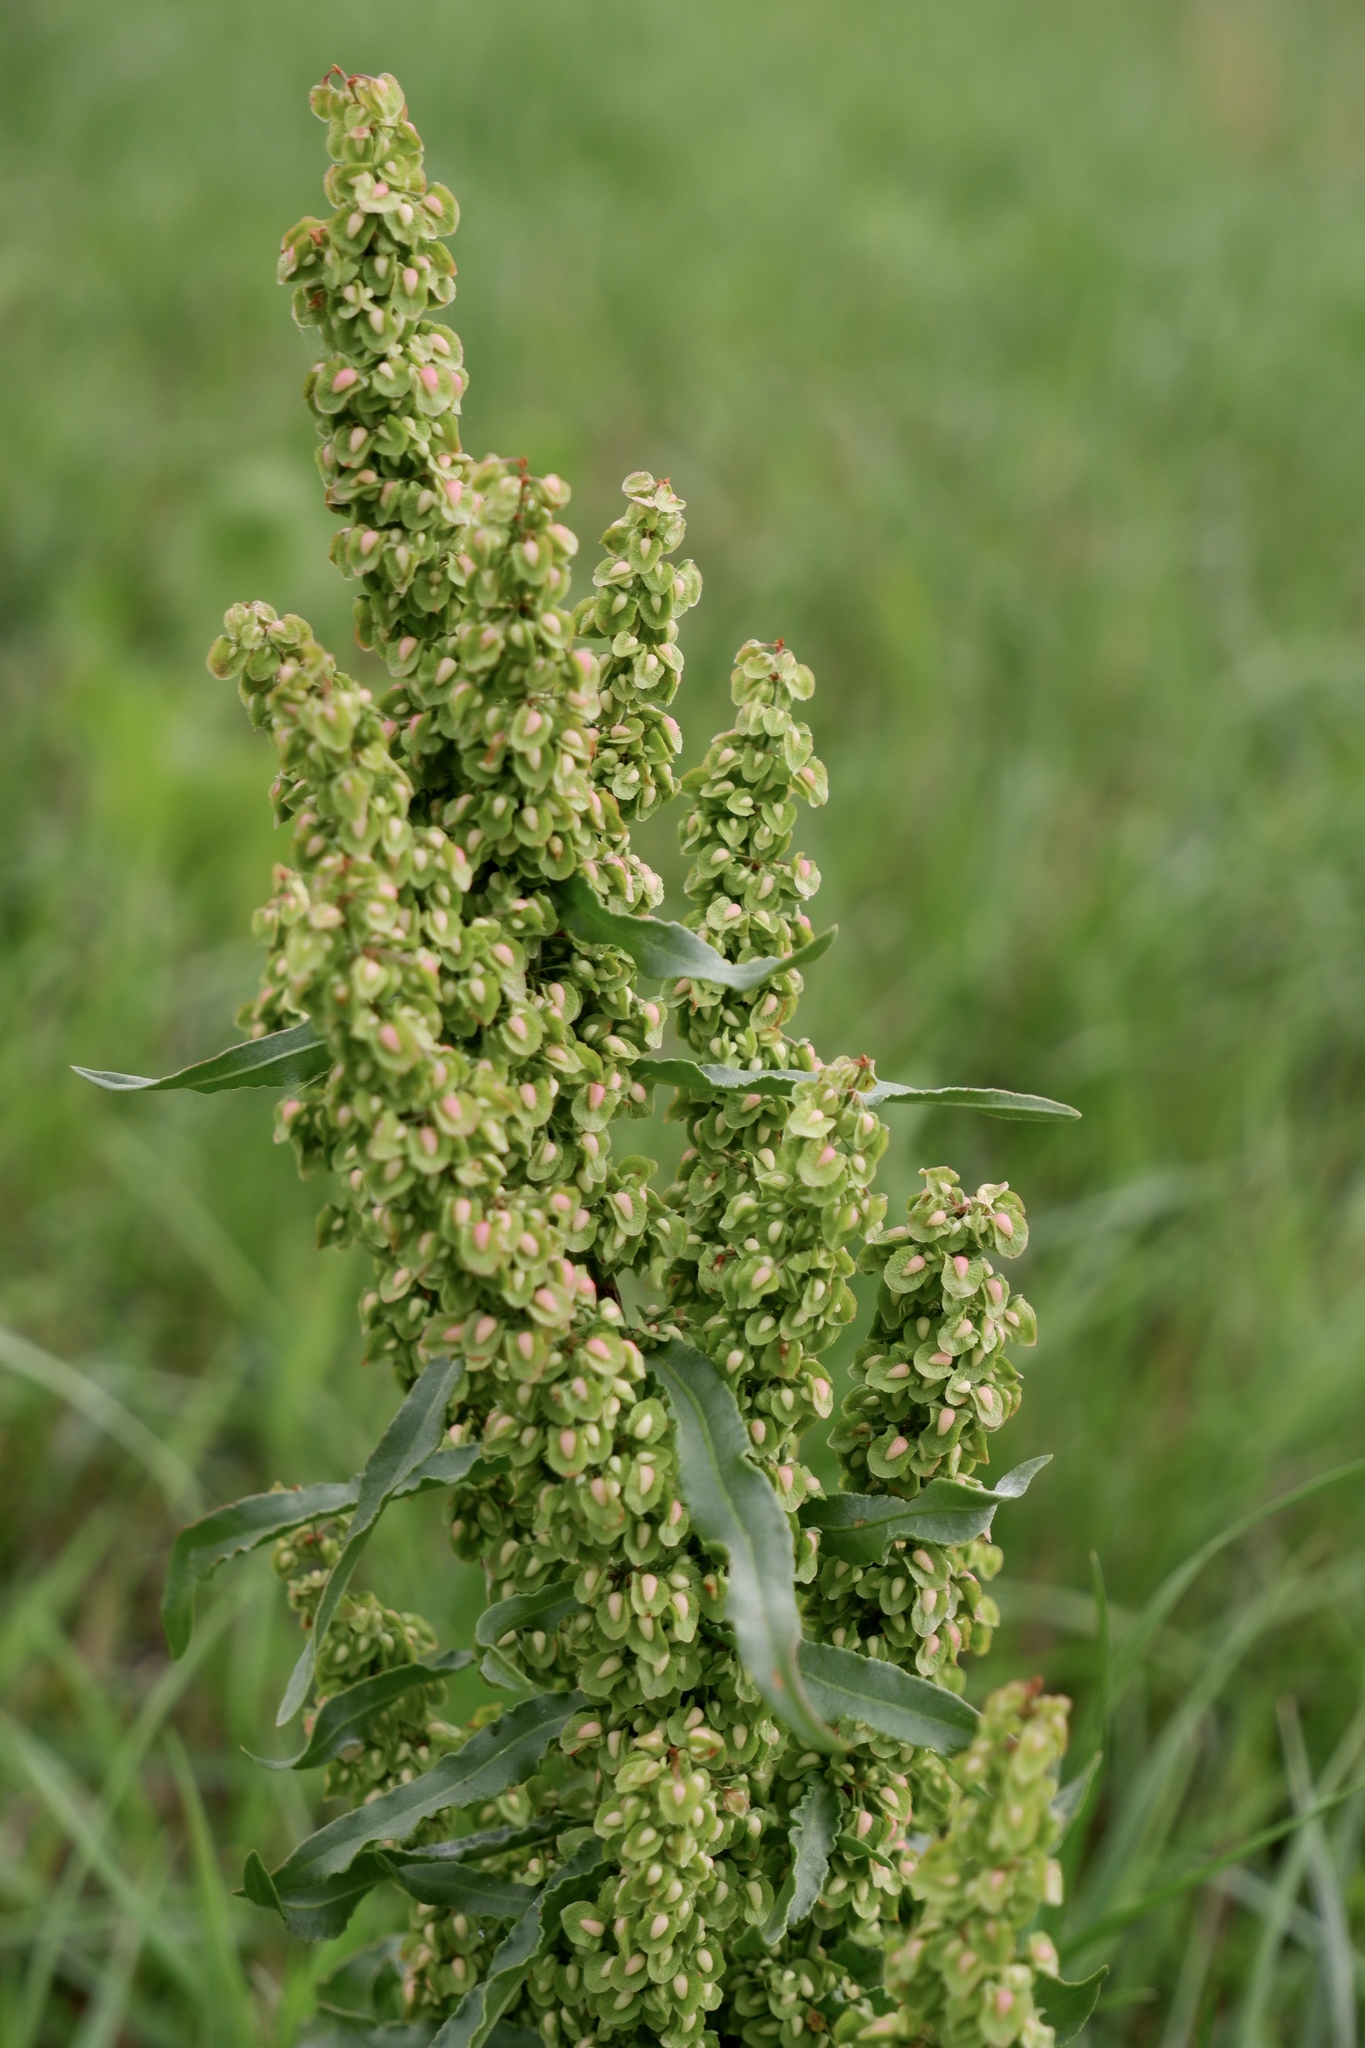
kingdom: Plantae
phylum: Tracheophyta
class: Magnoliopsida
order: Caryophyllales
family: Polygonaceae
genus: Rumex
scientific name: Rumex crispus
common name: Curled dock
